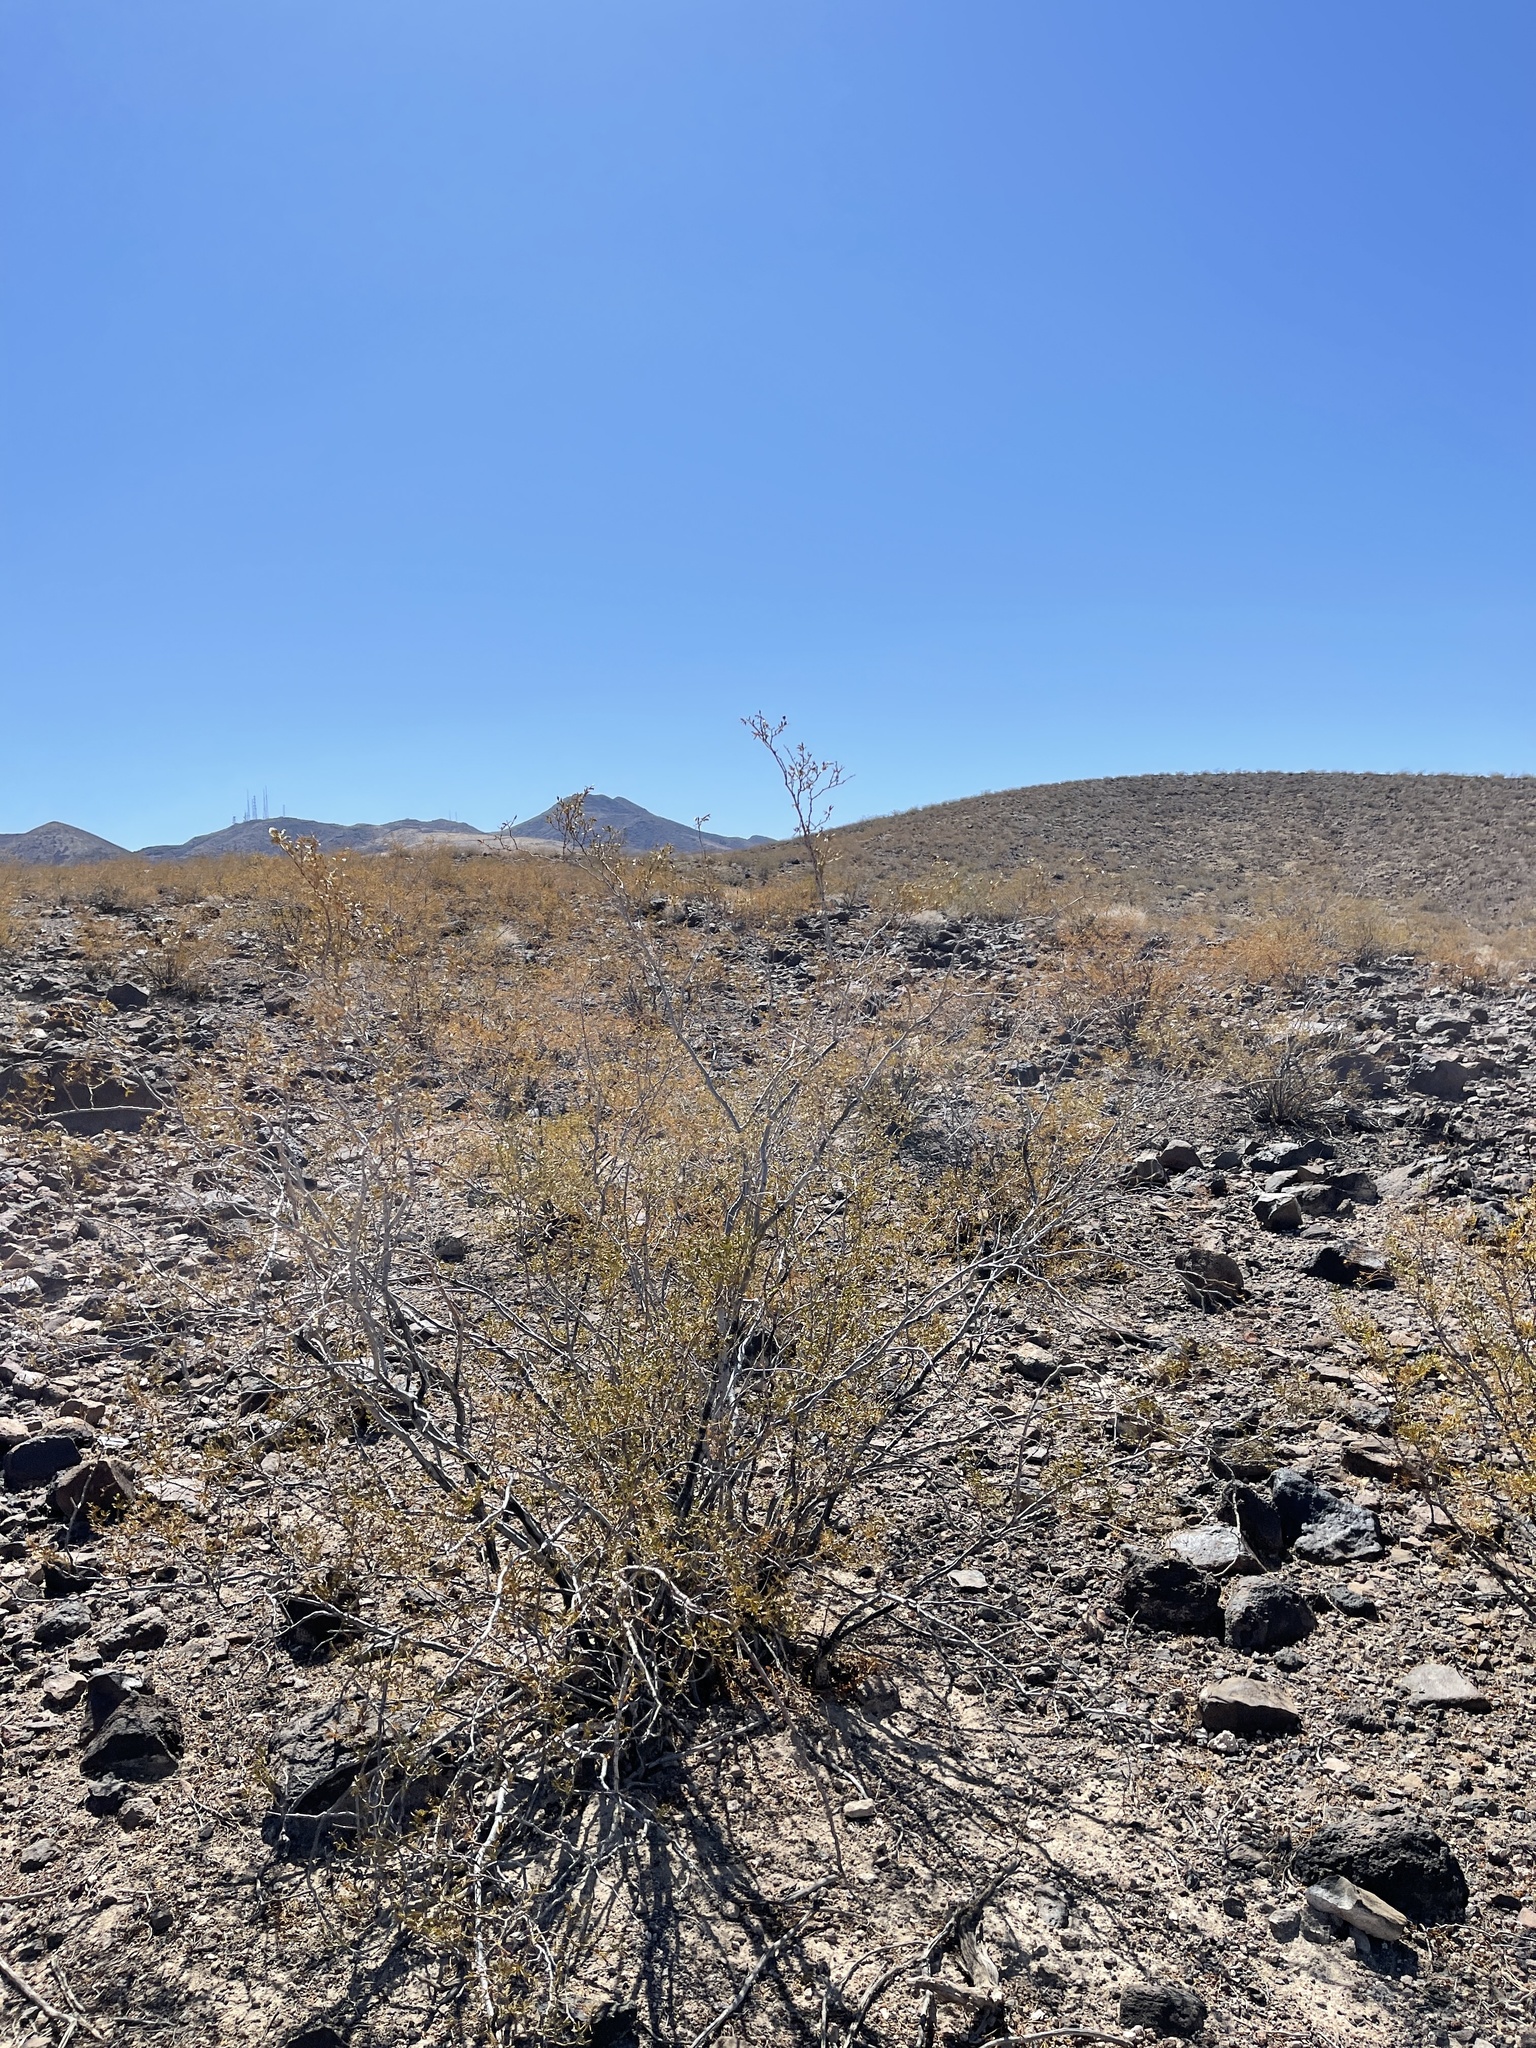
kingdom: Plantae
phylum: Tracheophyta
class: Magnoliopsida
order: Zygophyllales
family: Zygophyllaceae
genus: Larrea
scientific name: Larrea tridentata
